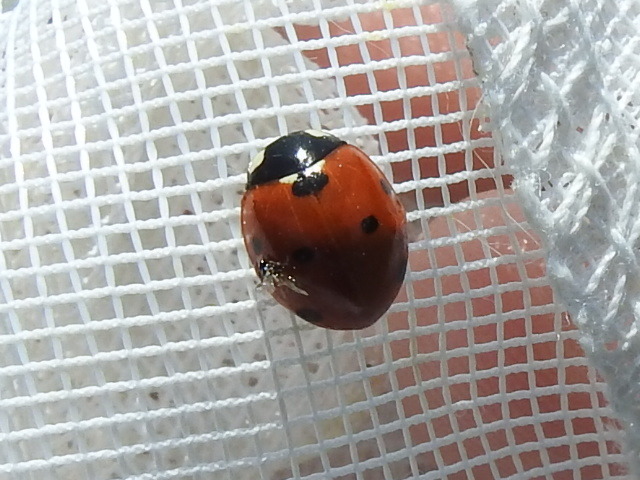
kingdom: Animalia
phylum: Arthropoda
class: Insecta
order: Coleoptera
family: Coccinellidae
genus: Coccinella
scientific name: Coccinella septempunctata
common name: Sevenspotted lady beetle
